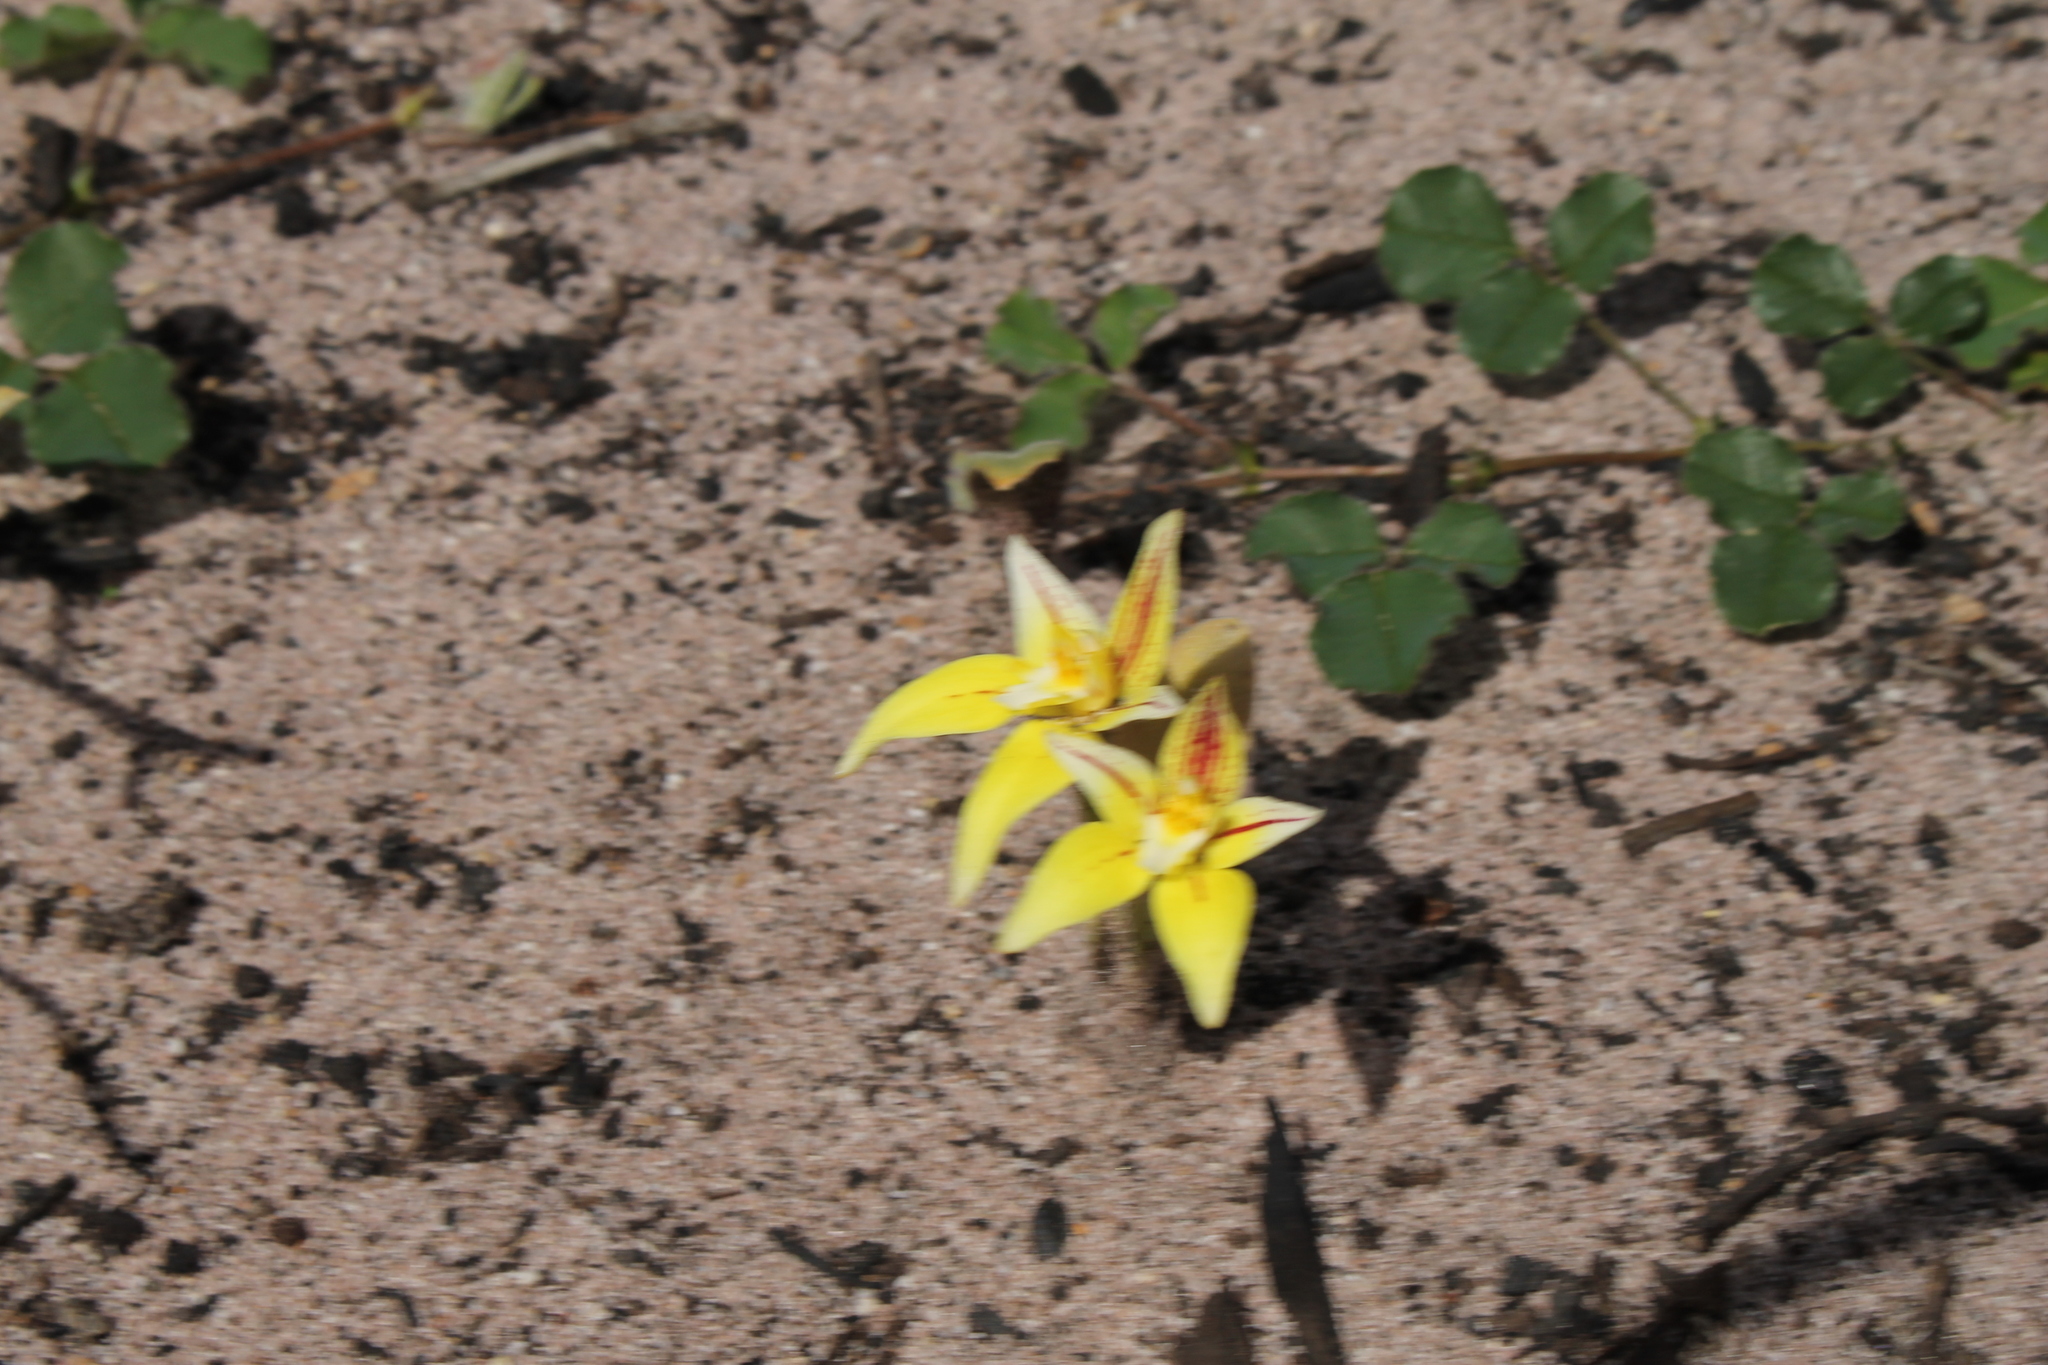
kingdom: Plantae
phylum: Tracheophyta
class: Liliopsida
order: Asparagales
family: Orchidaceae
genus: Caladenia
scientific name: Caladenia flava
